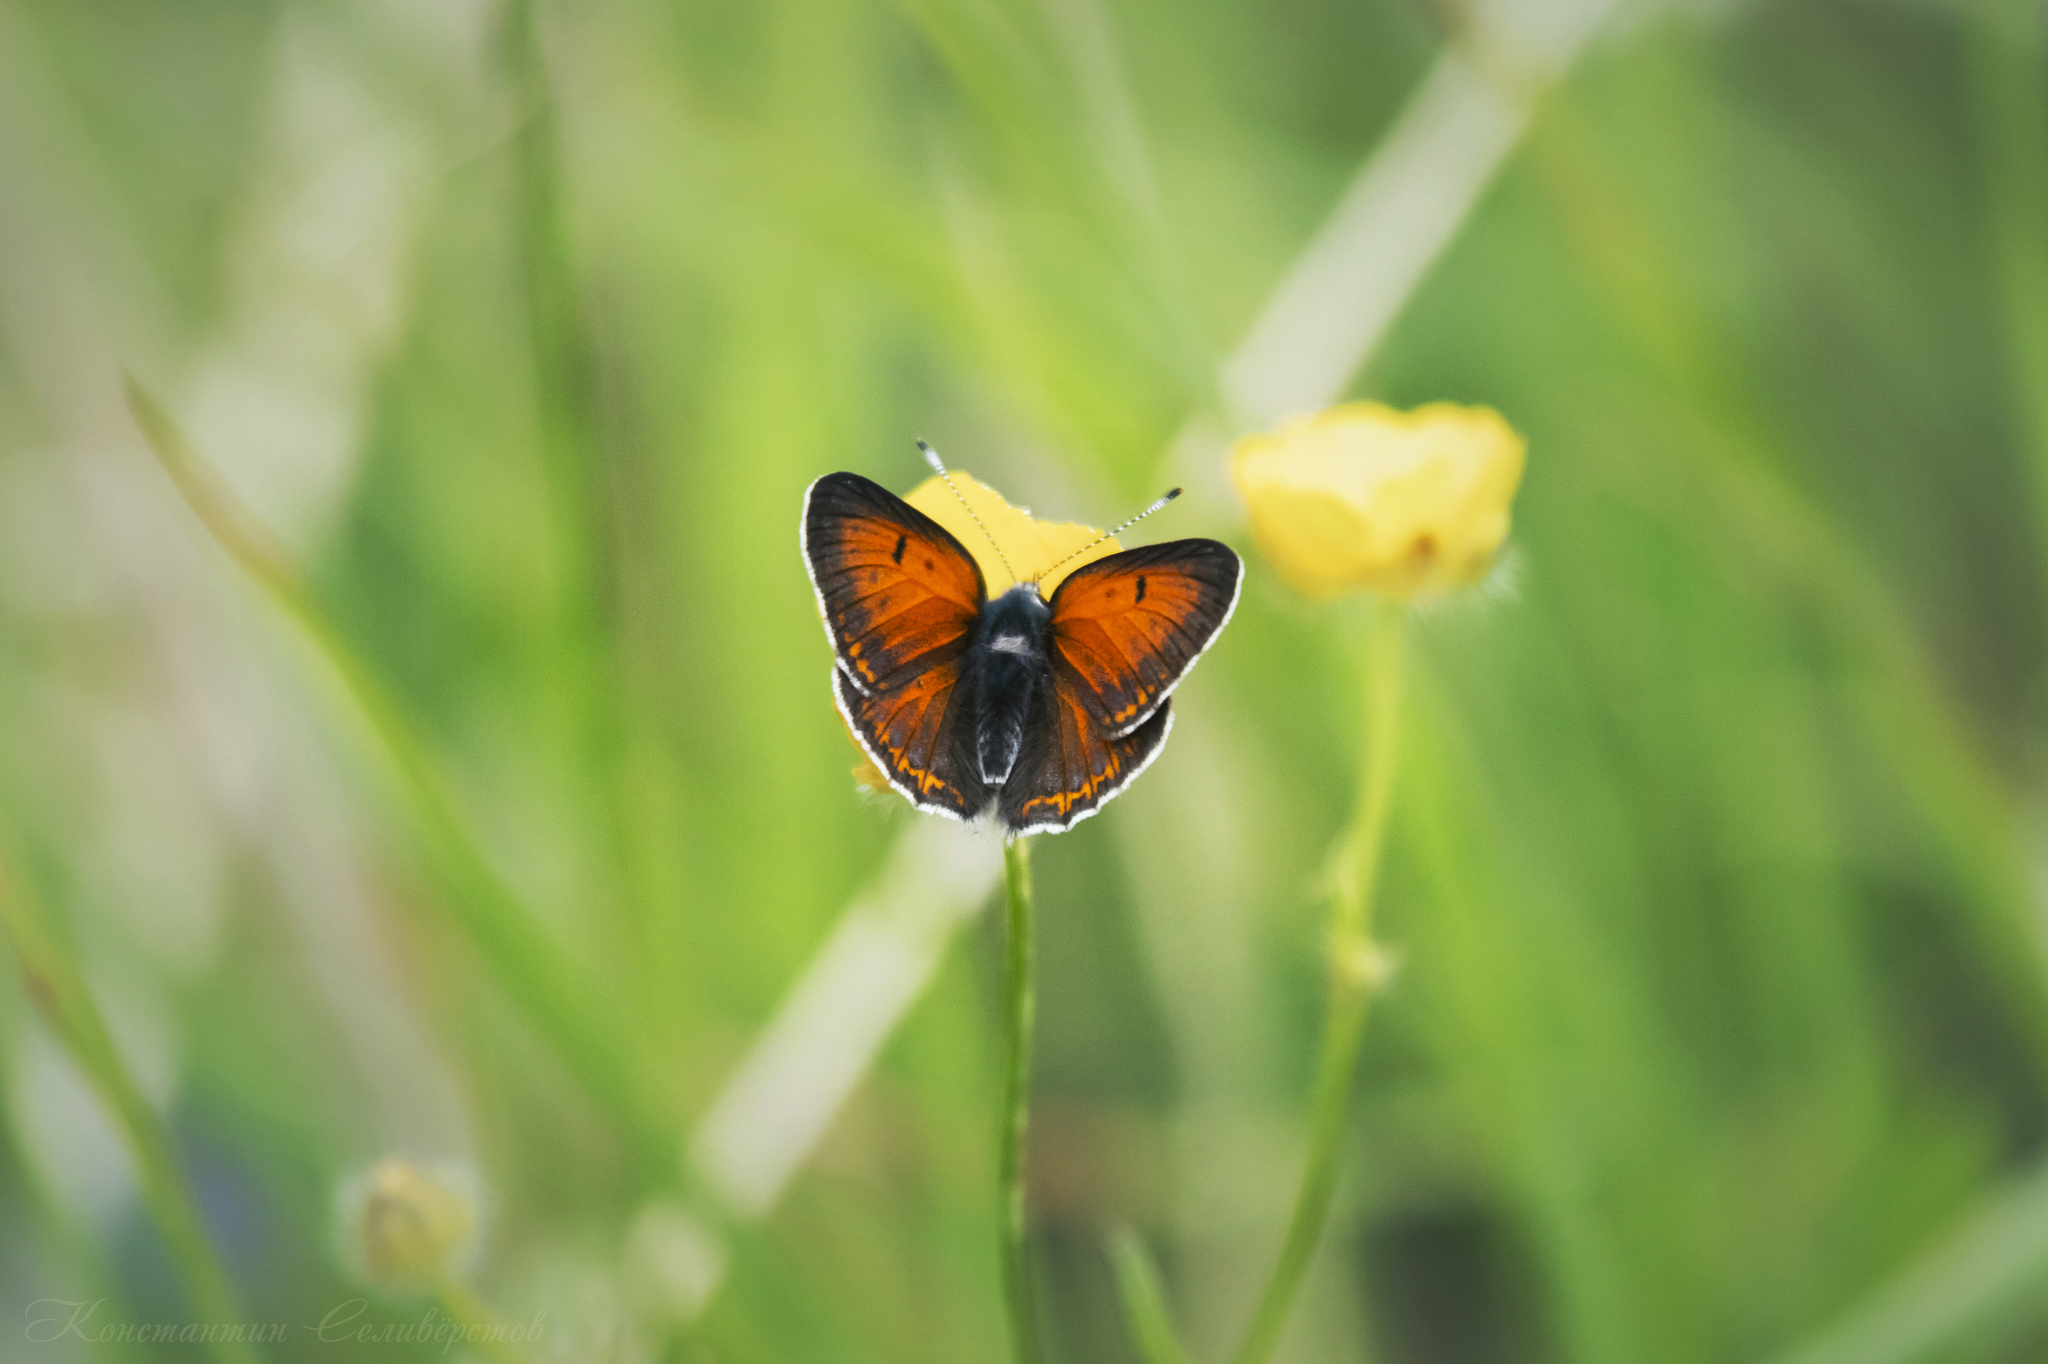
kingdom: Animalia
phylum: Arthropoda
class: Insecta
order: Lepidoptera
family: Lycaenidae
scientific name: Lycaenidae
